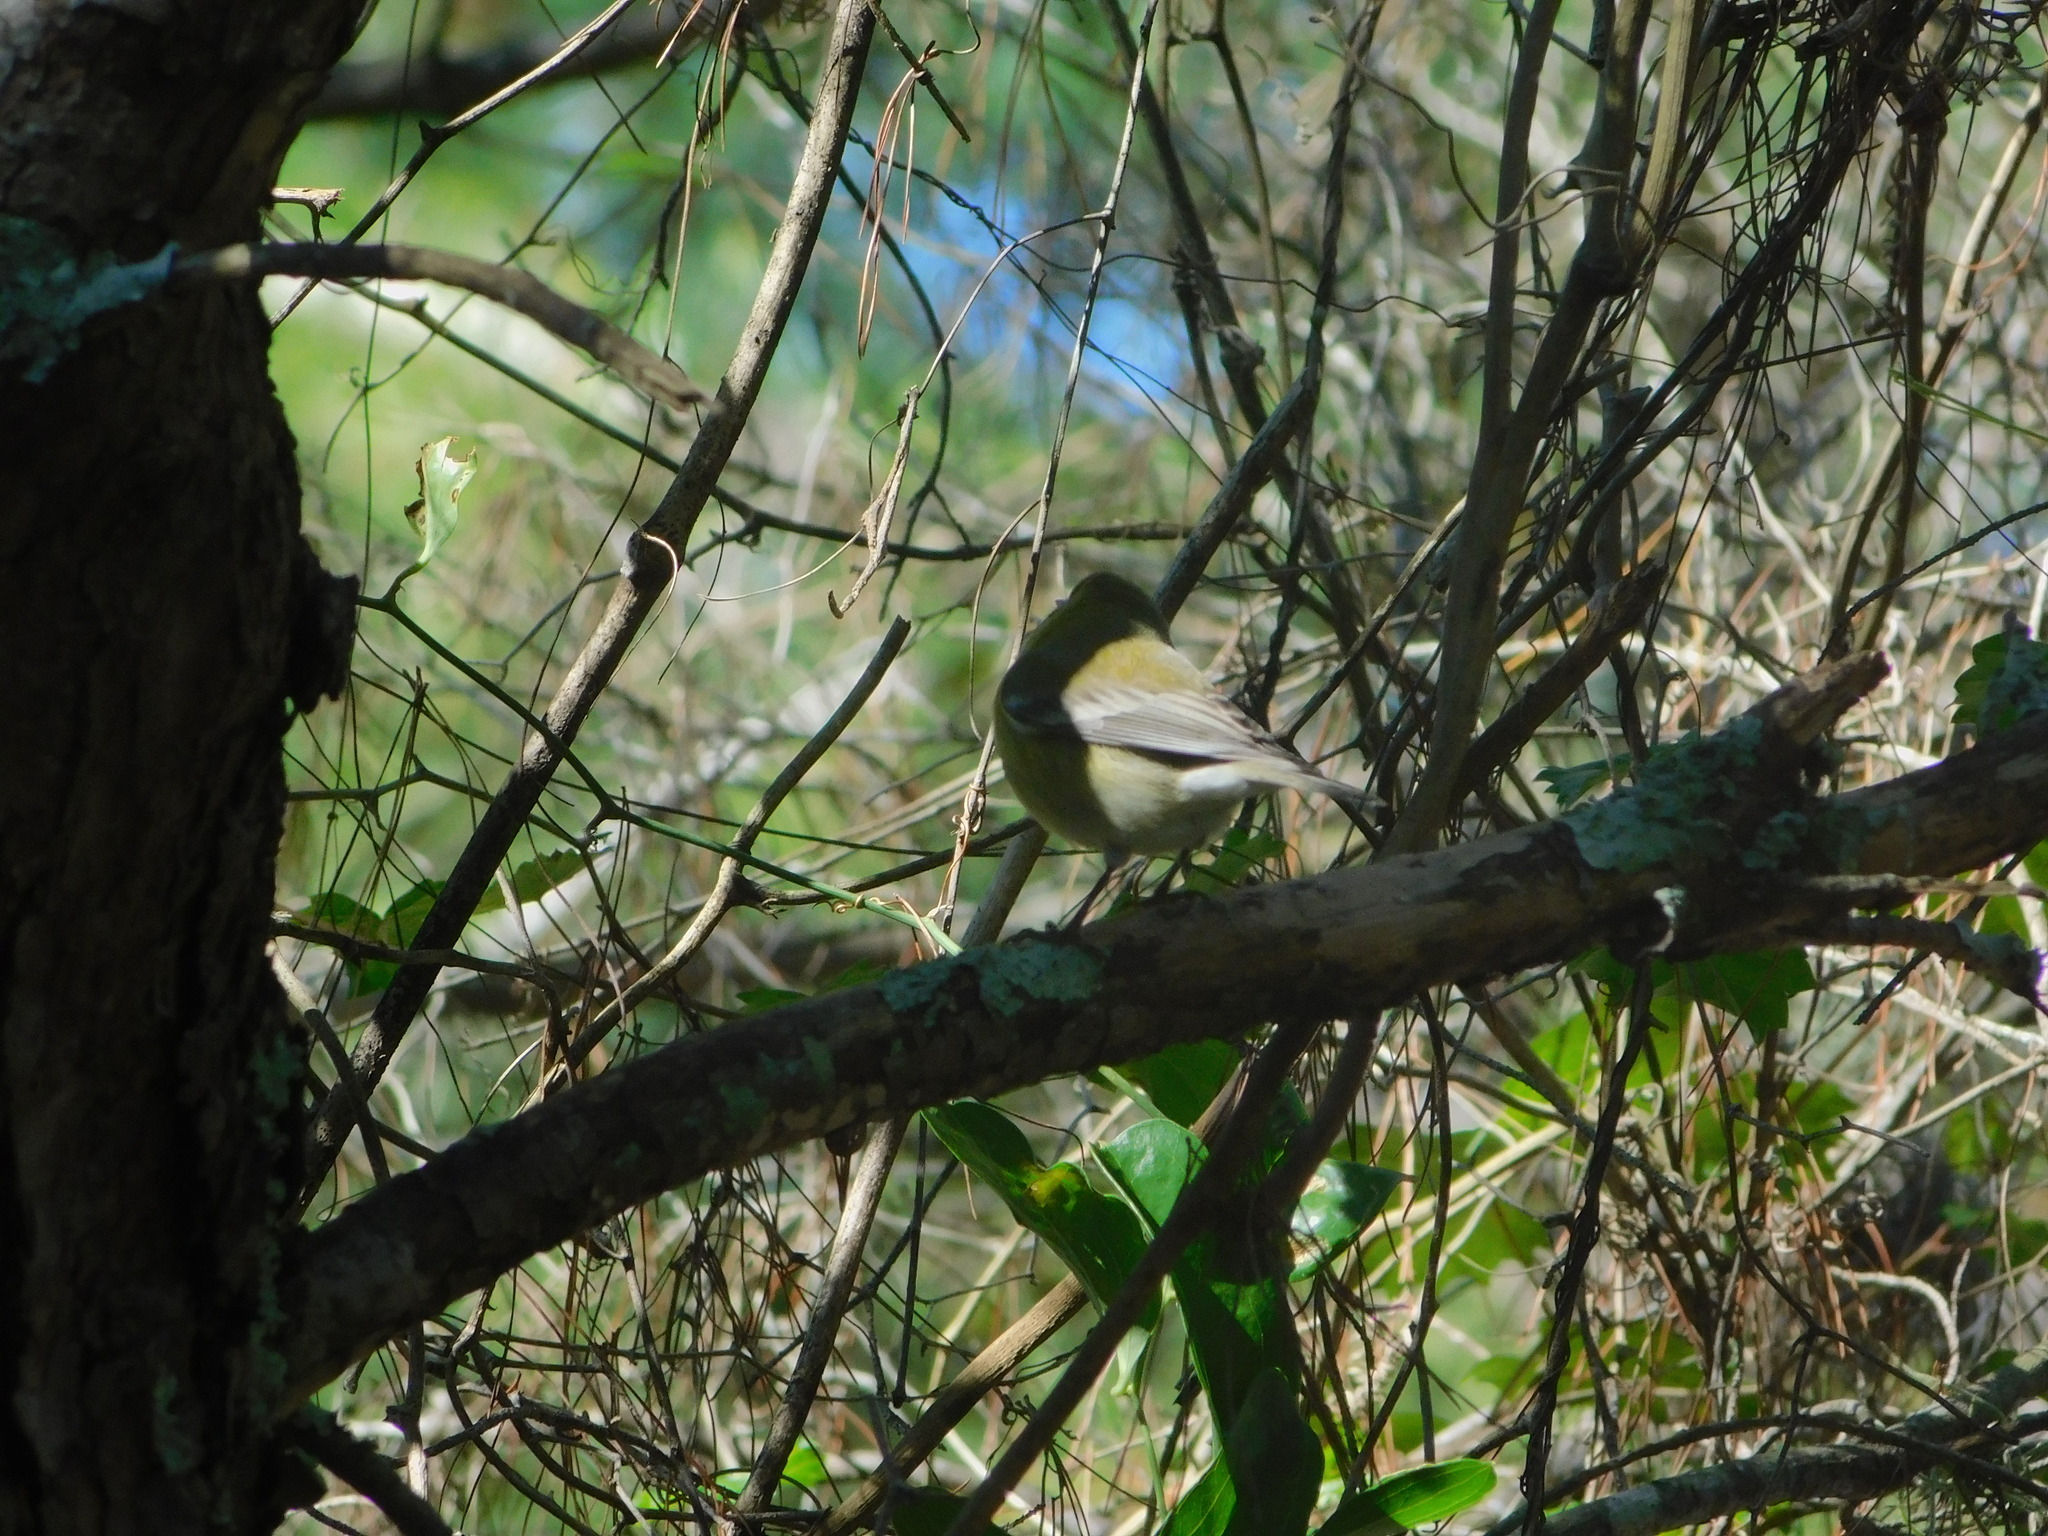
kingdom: Animalia
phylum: Chordata
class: Aves
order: Passeriformes
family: Parulidae
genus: Setophaga
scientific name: Setophaga pinus
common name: Pine warbler
